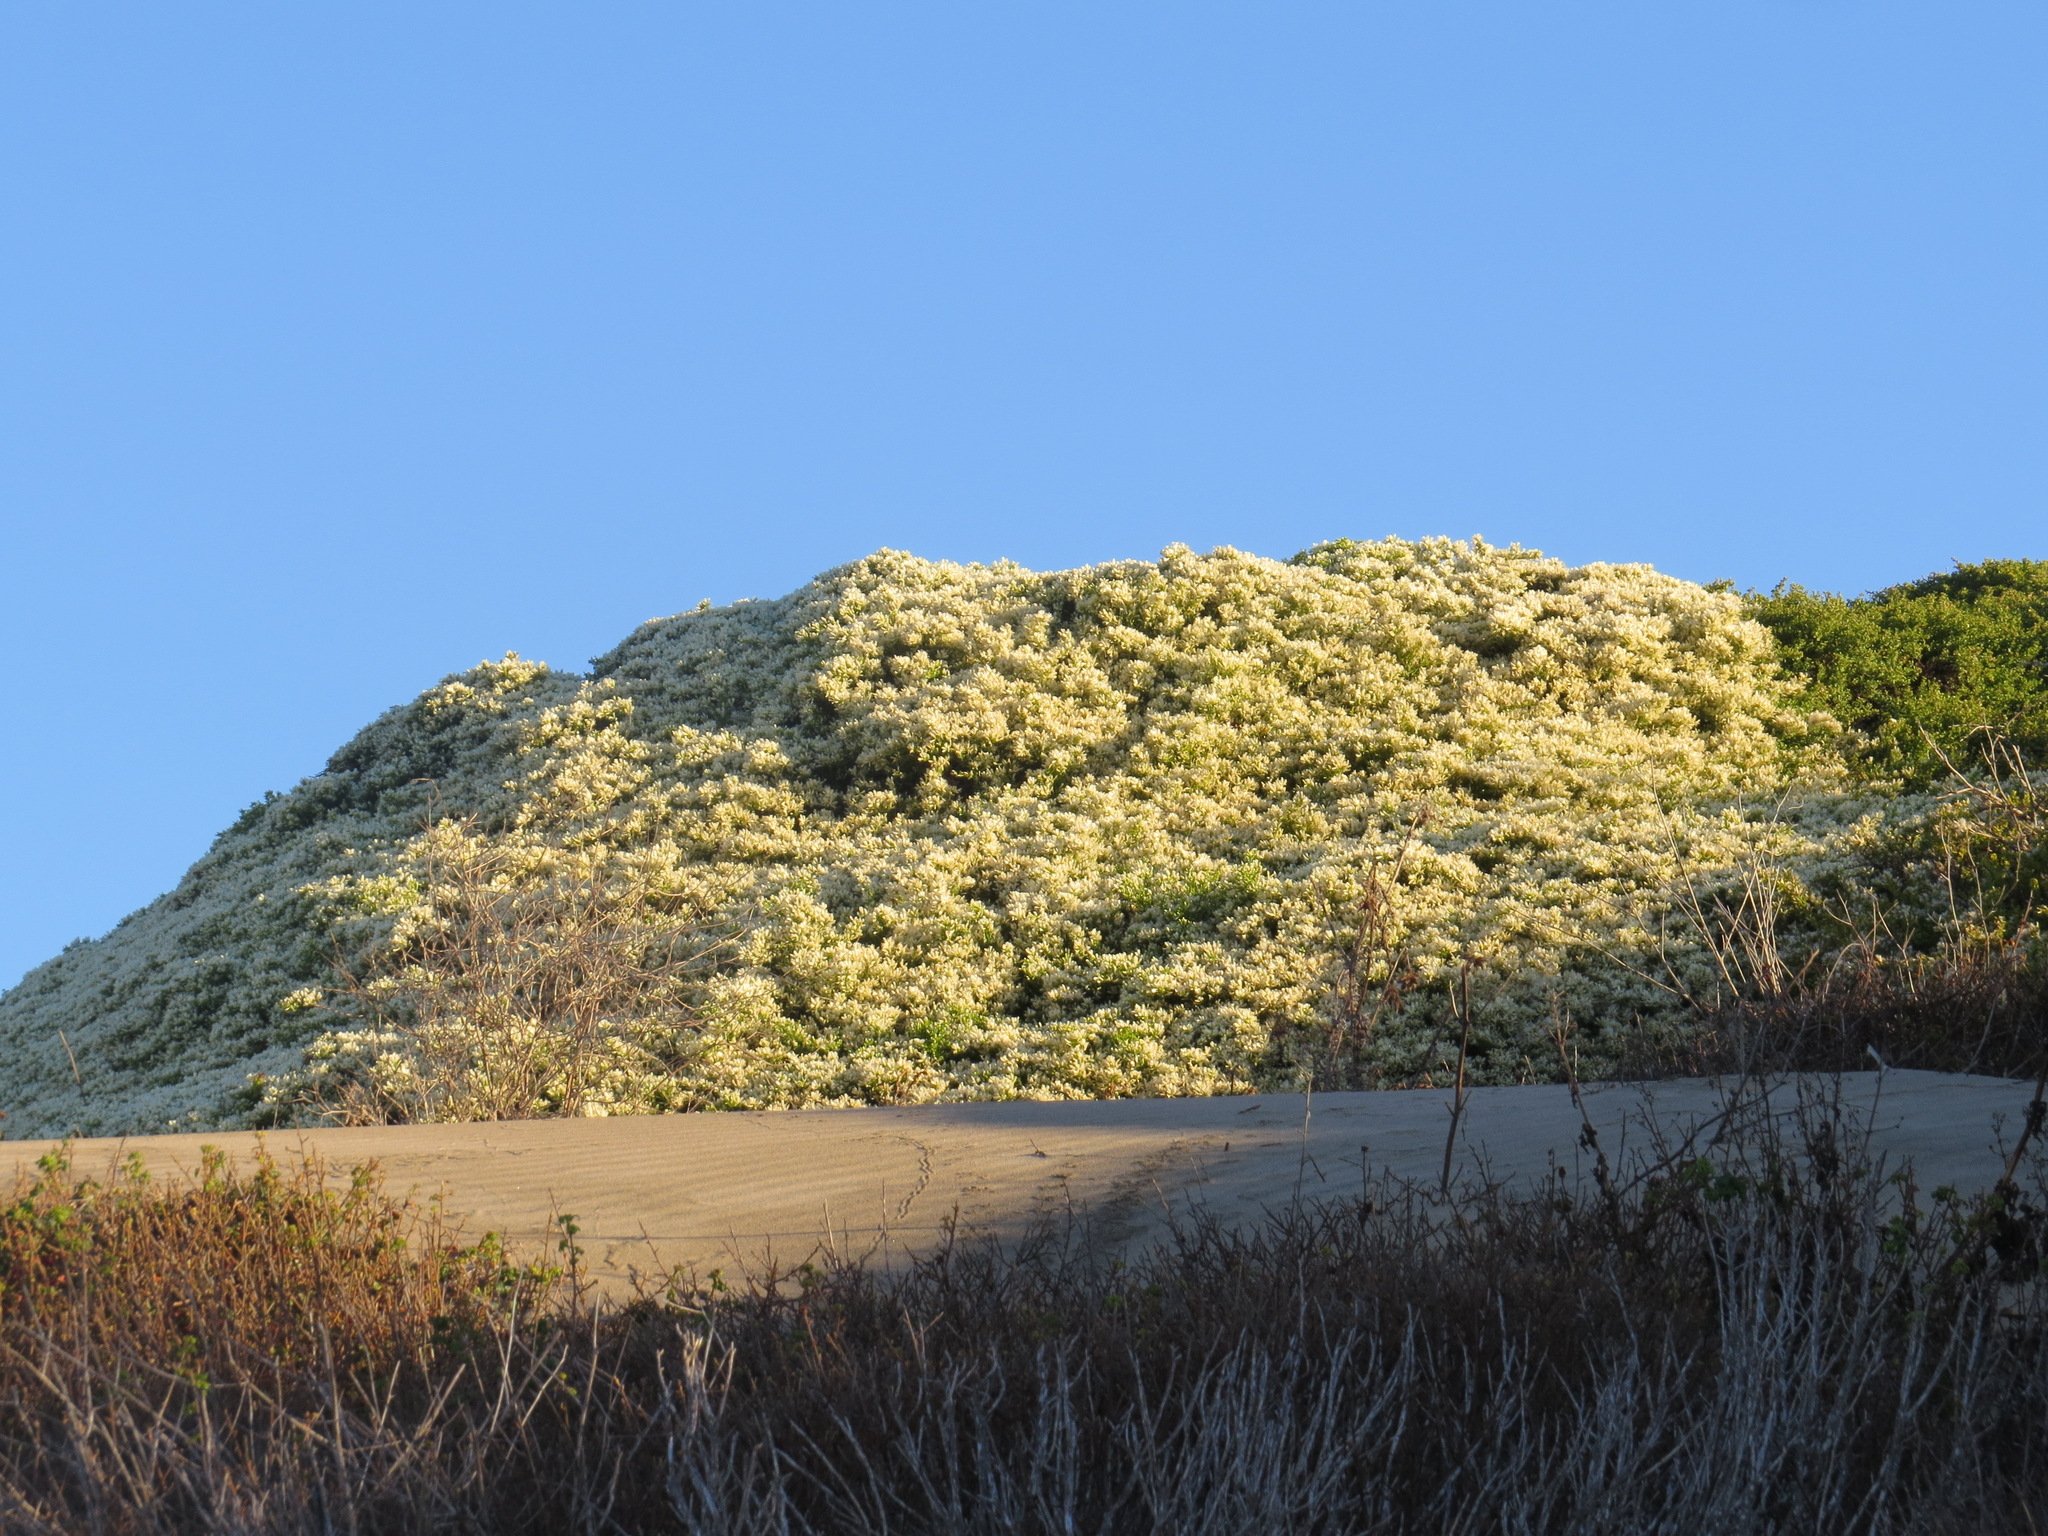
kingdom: Plantae
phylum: Tracheophyta
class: Magnoliopsida
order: Asterales
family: Asteraceae
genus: Baccharis
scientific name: Baccharis pilularis
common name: Coyotebrush
